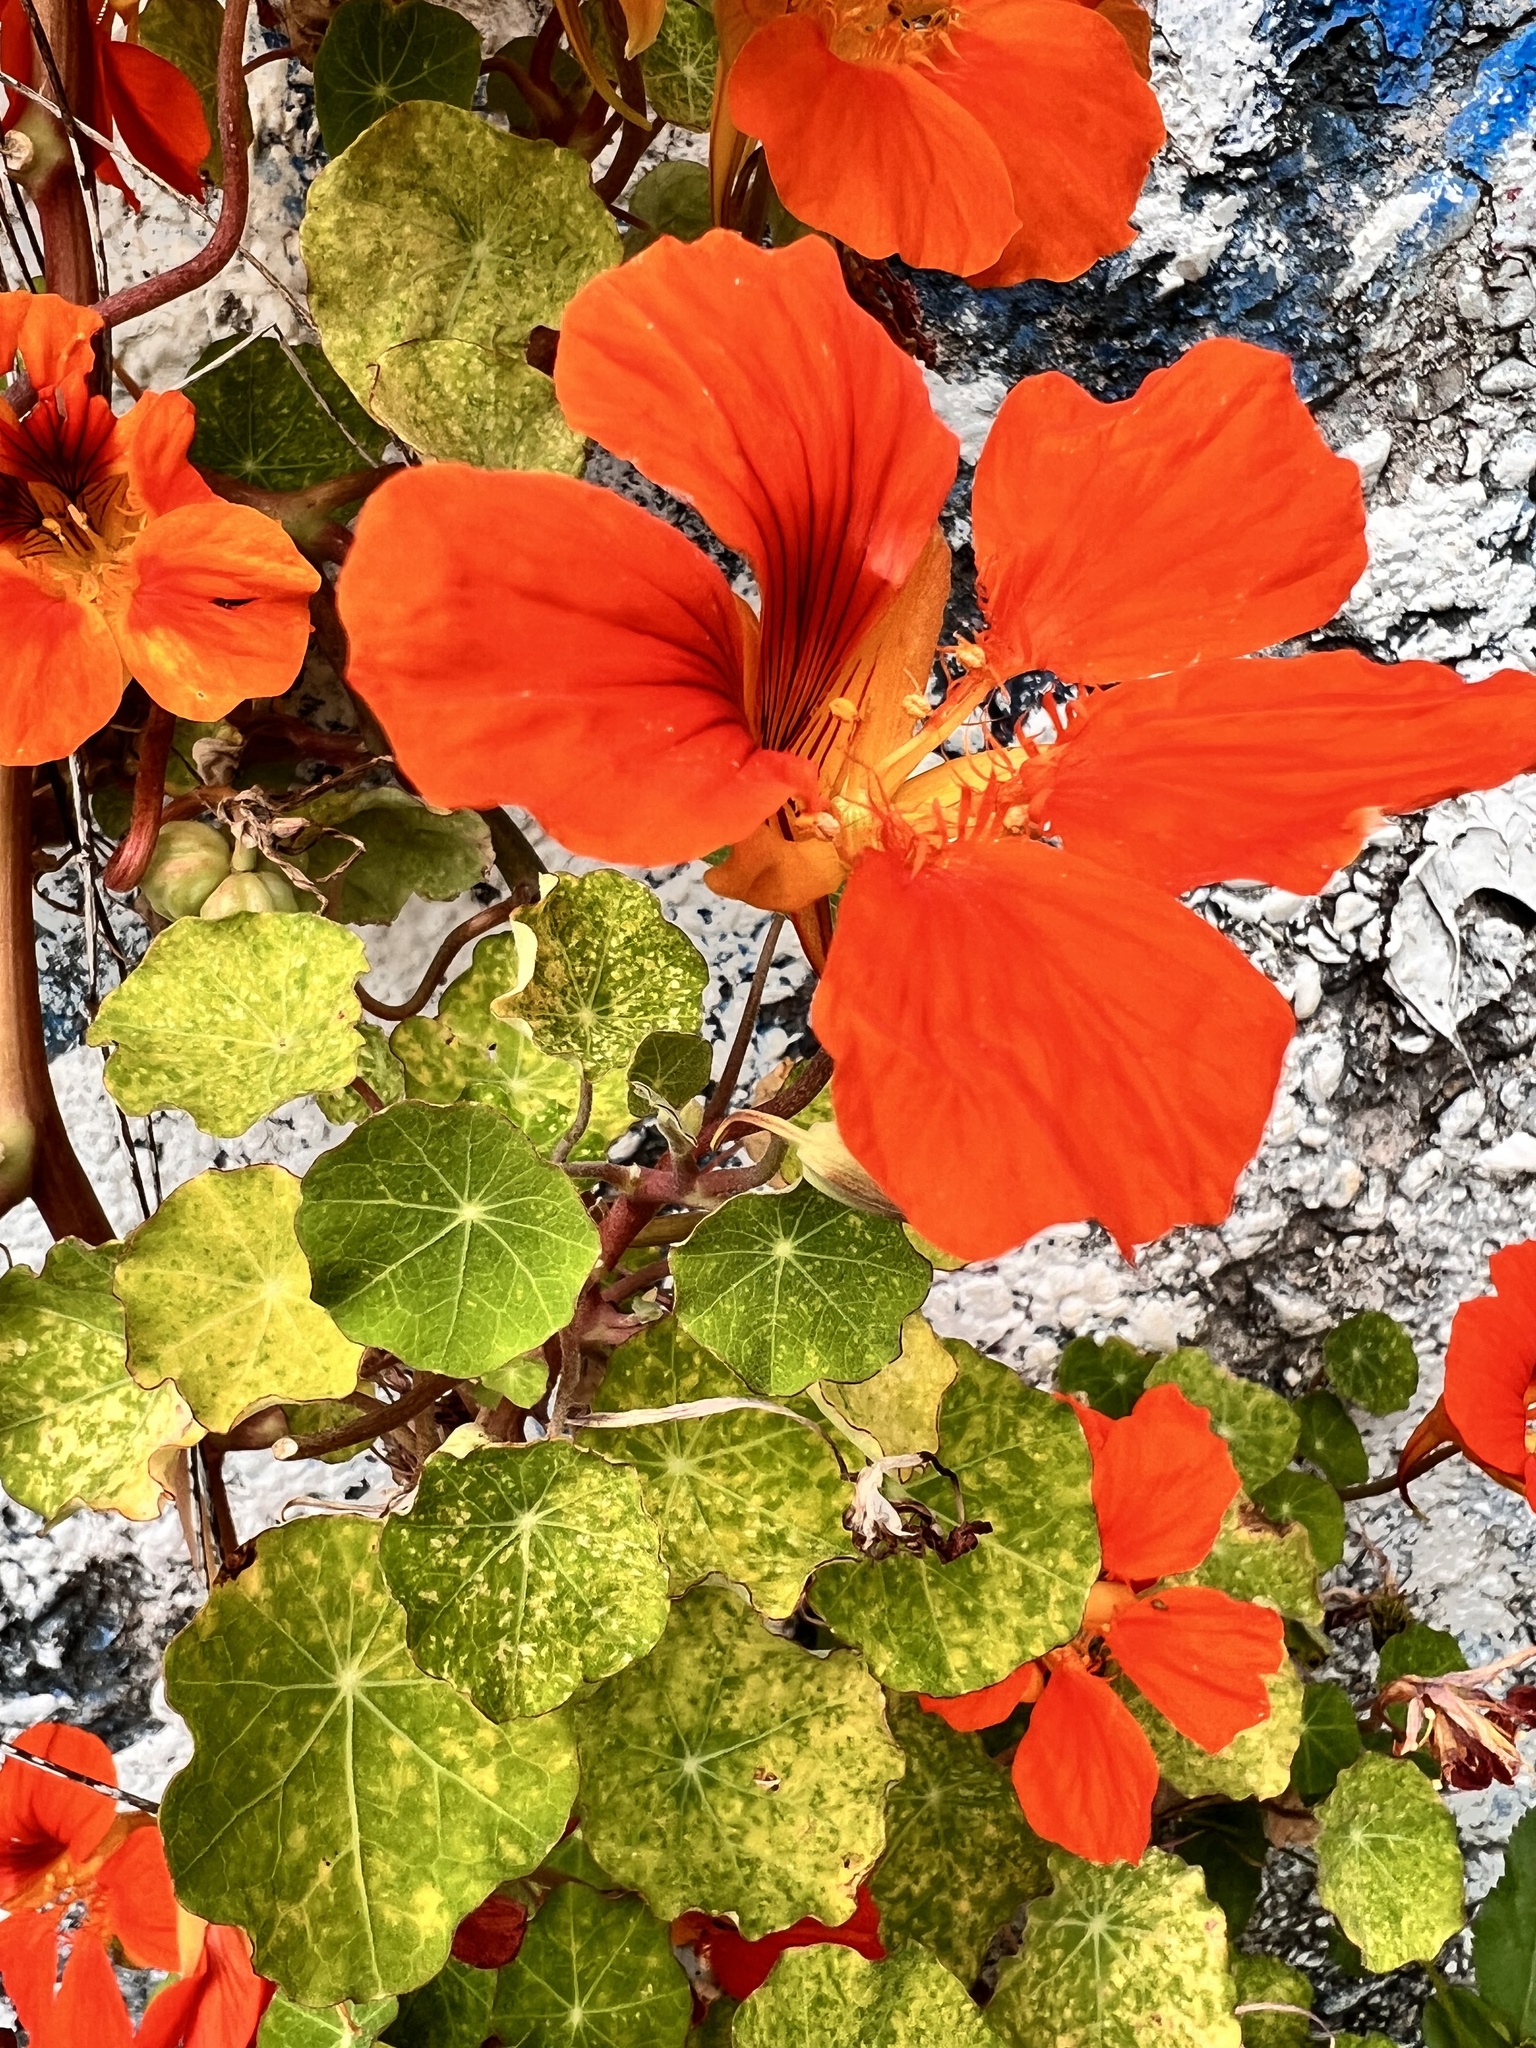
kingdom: Plantae
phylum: Tracheophyta
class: Magnoliopsida
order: Brassicales
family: Tropaeolaceae
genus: Tropaeolum
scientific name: Tropaeolum majus
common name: Nasturtium
